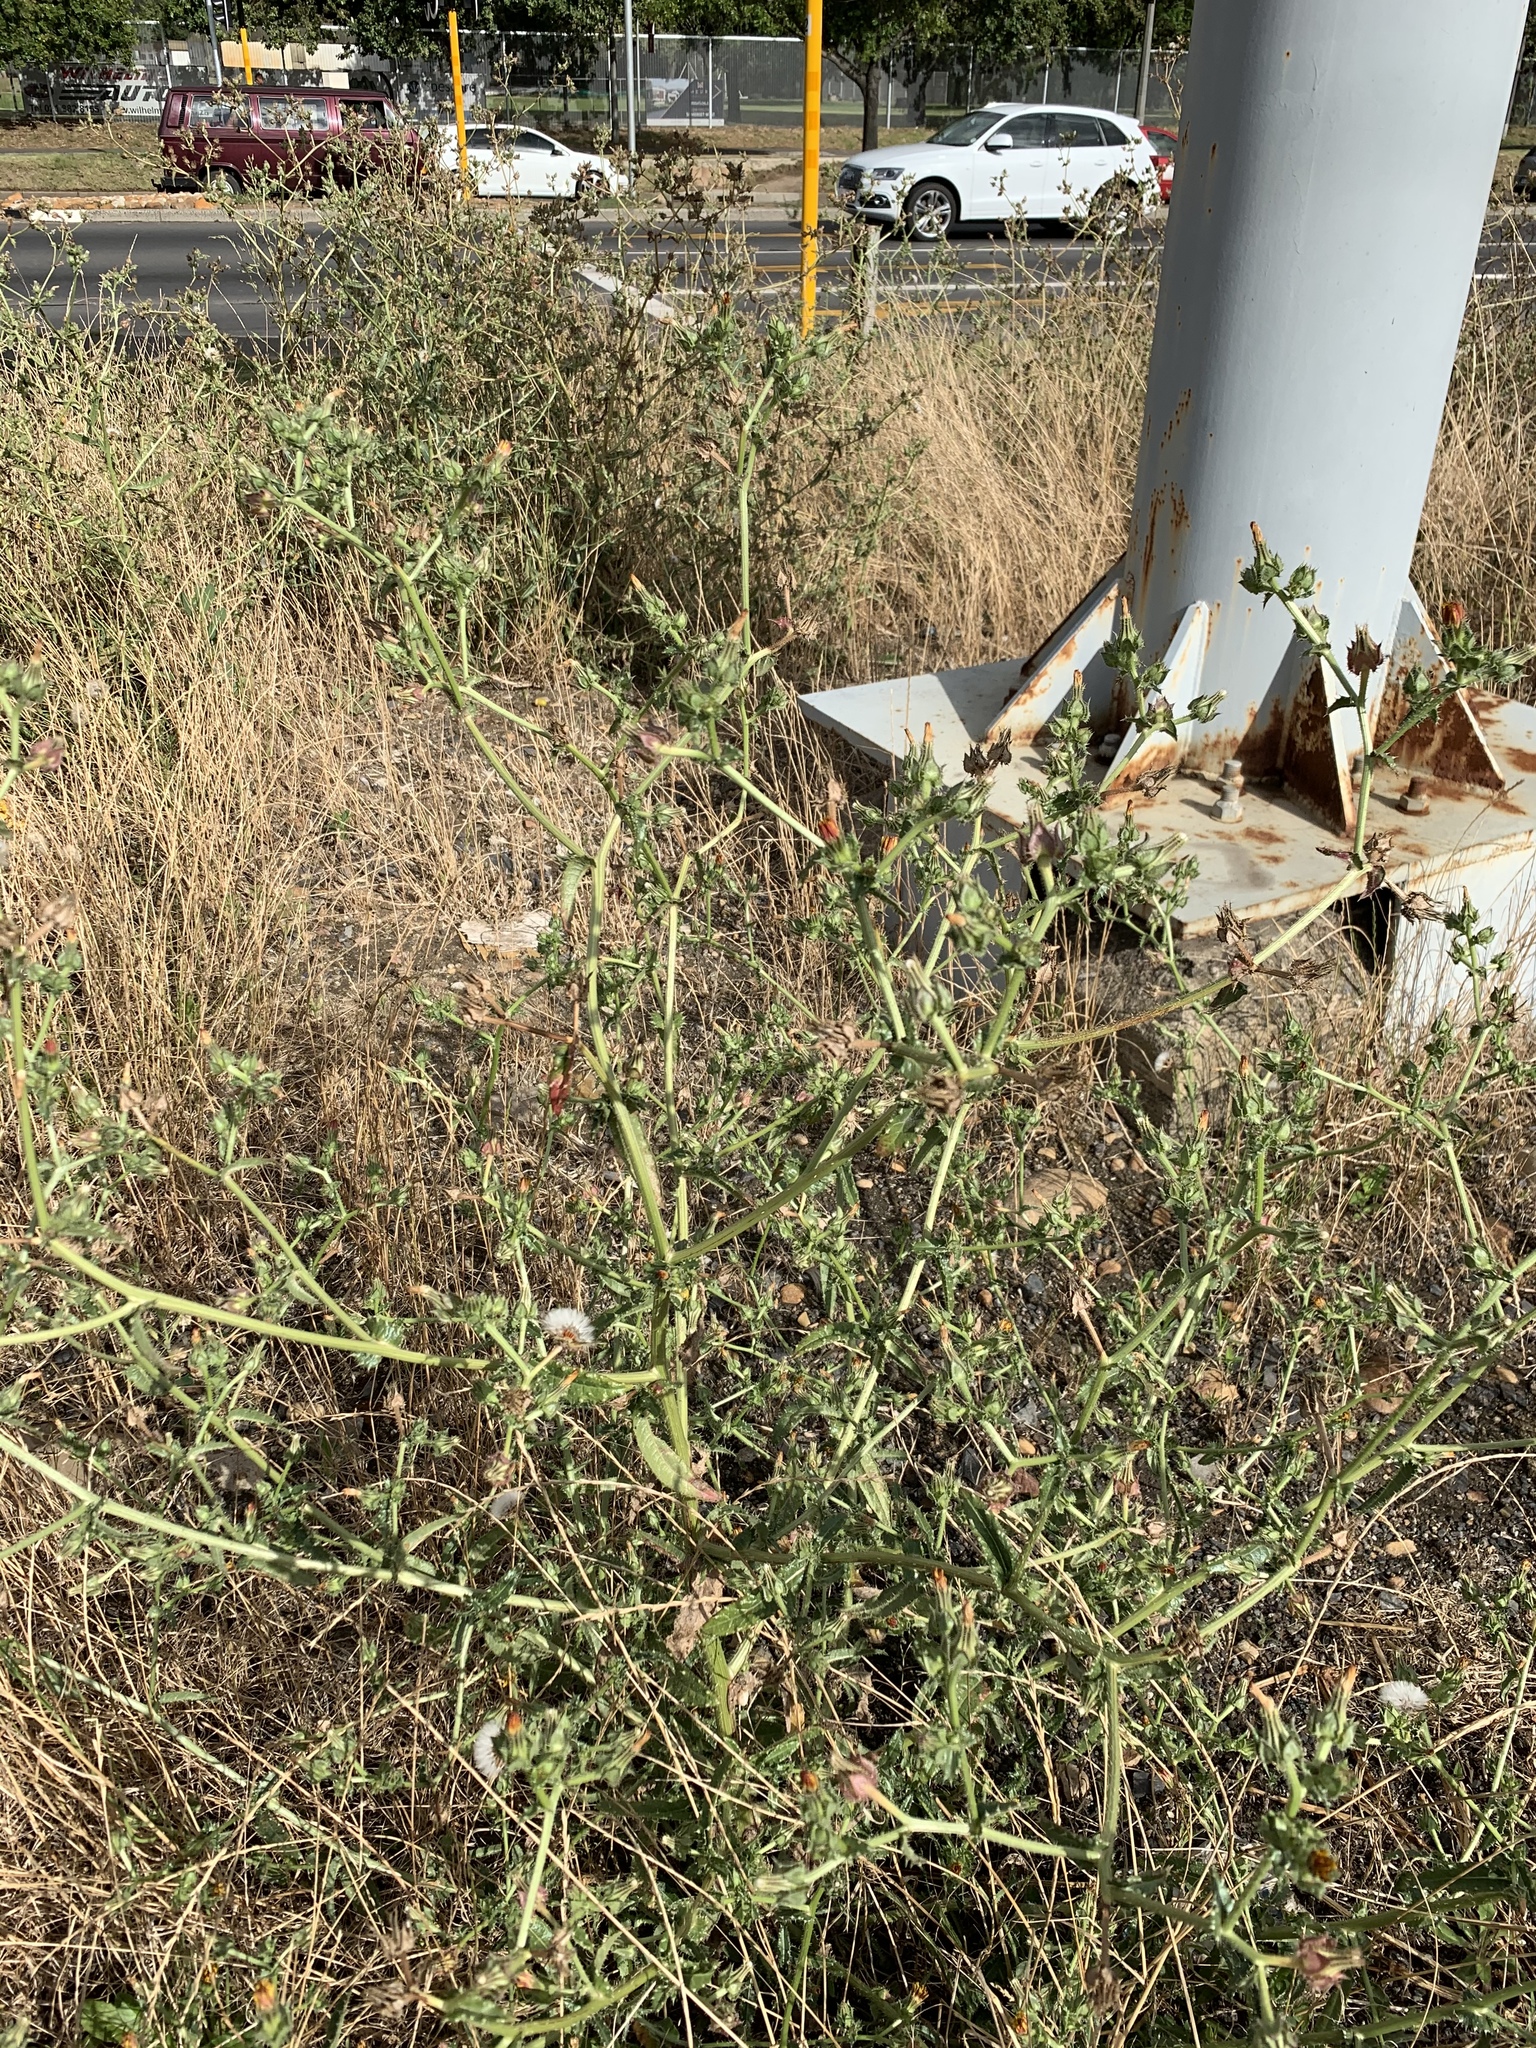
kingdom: Plantae
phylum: Tracheophyta
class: Magnoliopsida
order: Asterales
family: Asteraceae
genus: Helminthotheca
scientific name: Helminthotheca echioides
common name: Ox-tongue
